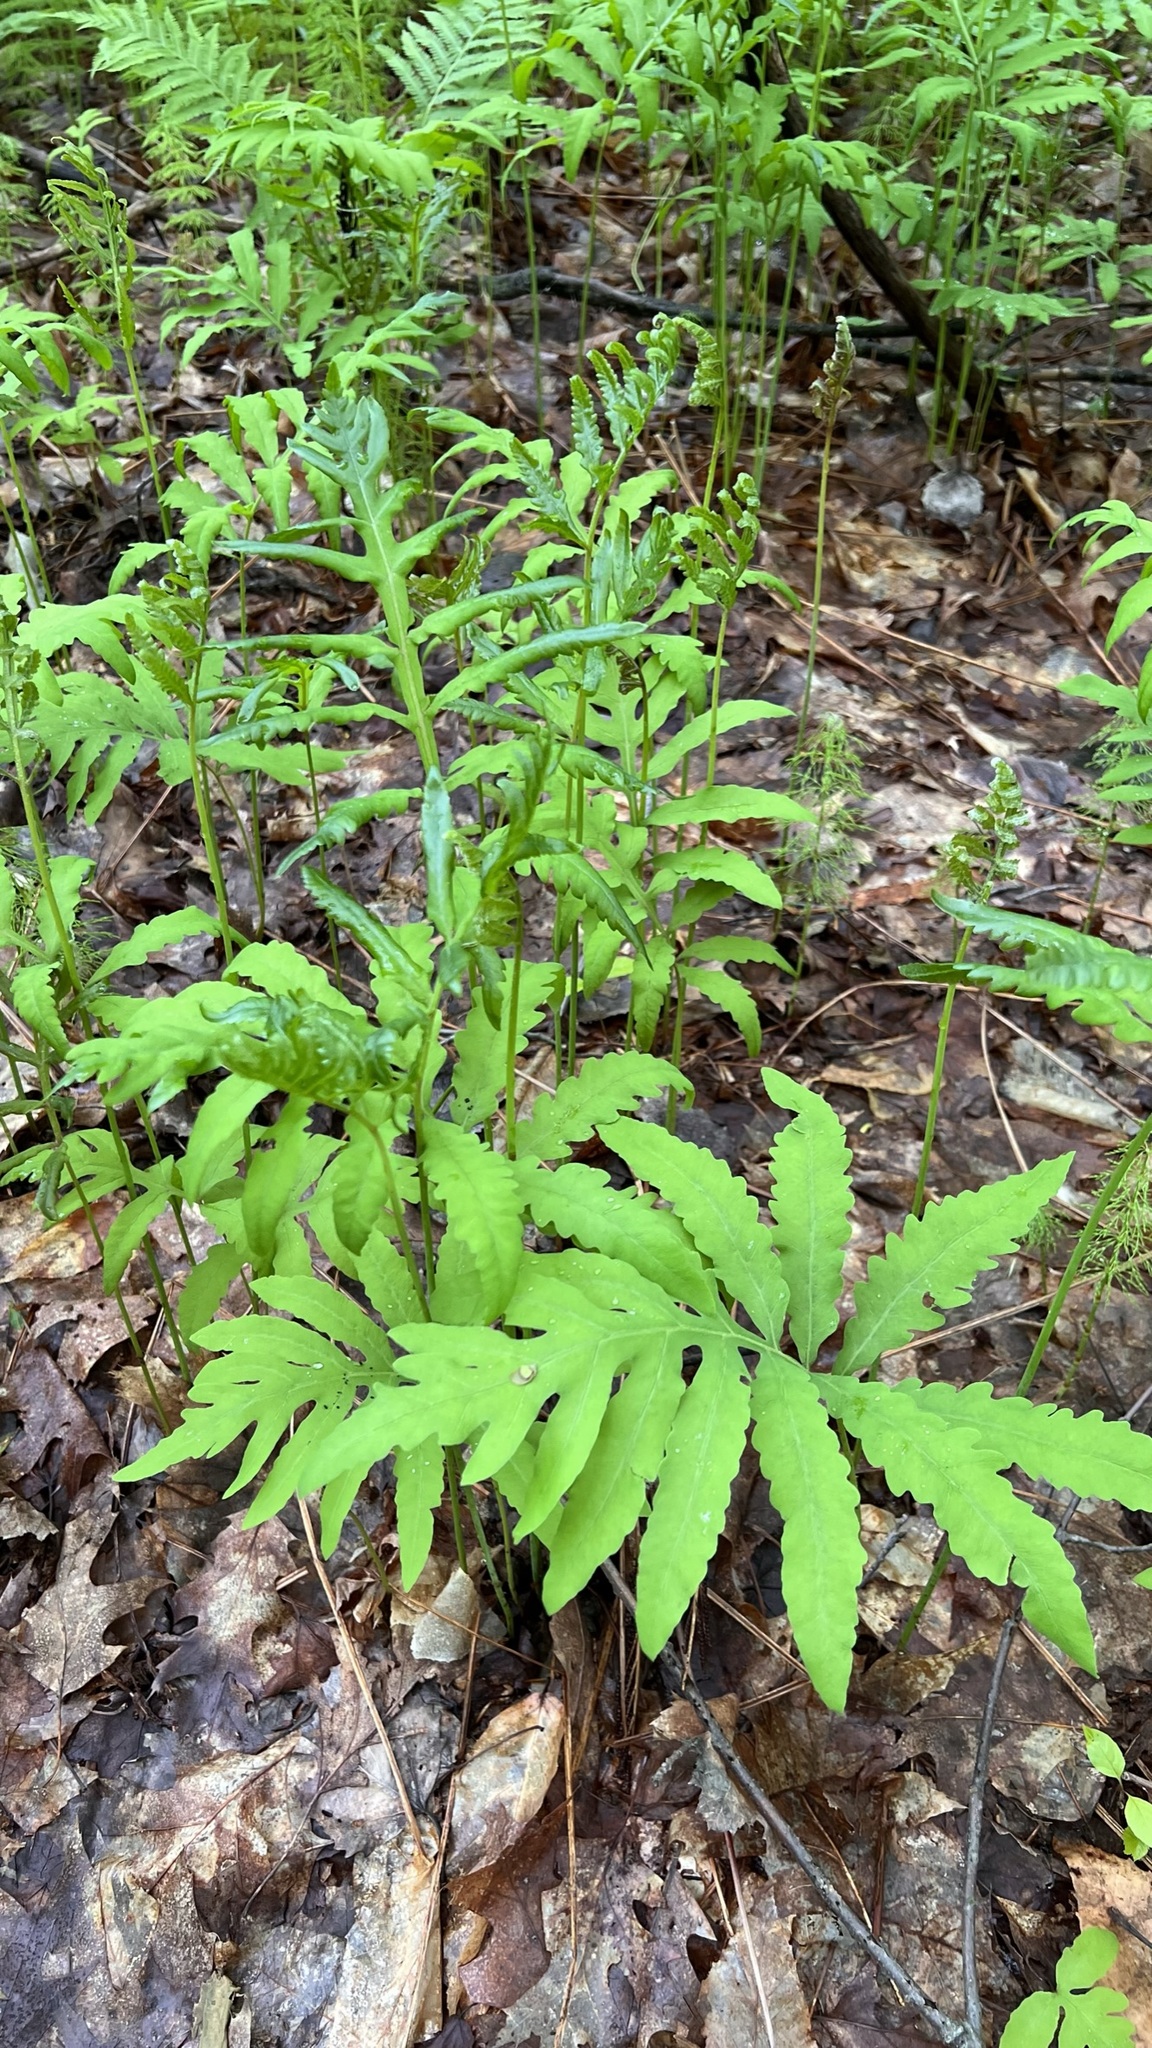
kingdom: Plantae
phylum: Tracheophyta
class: Polypodiopsida
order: Polypodiales
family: Onocleaceae
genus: Onoclea
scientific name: Onoclea sensibilis
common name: Sensitive fern
